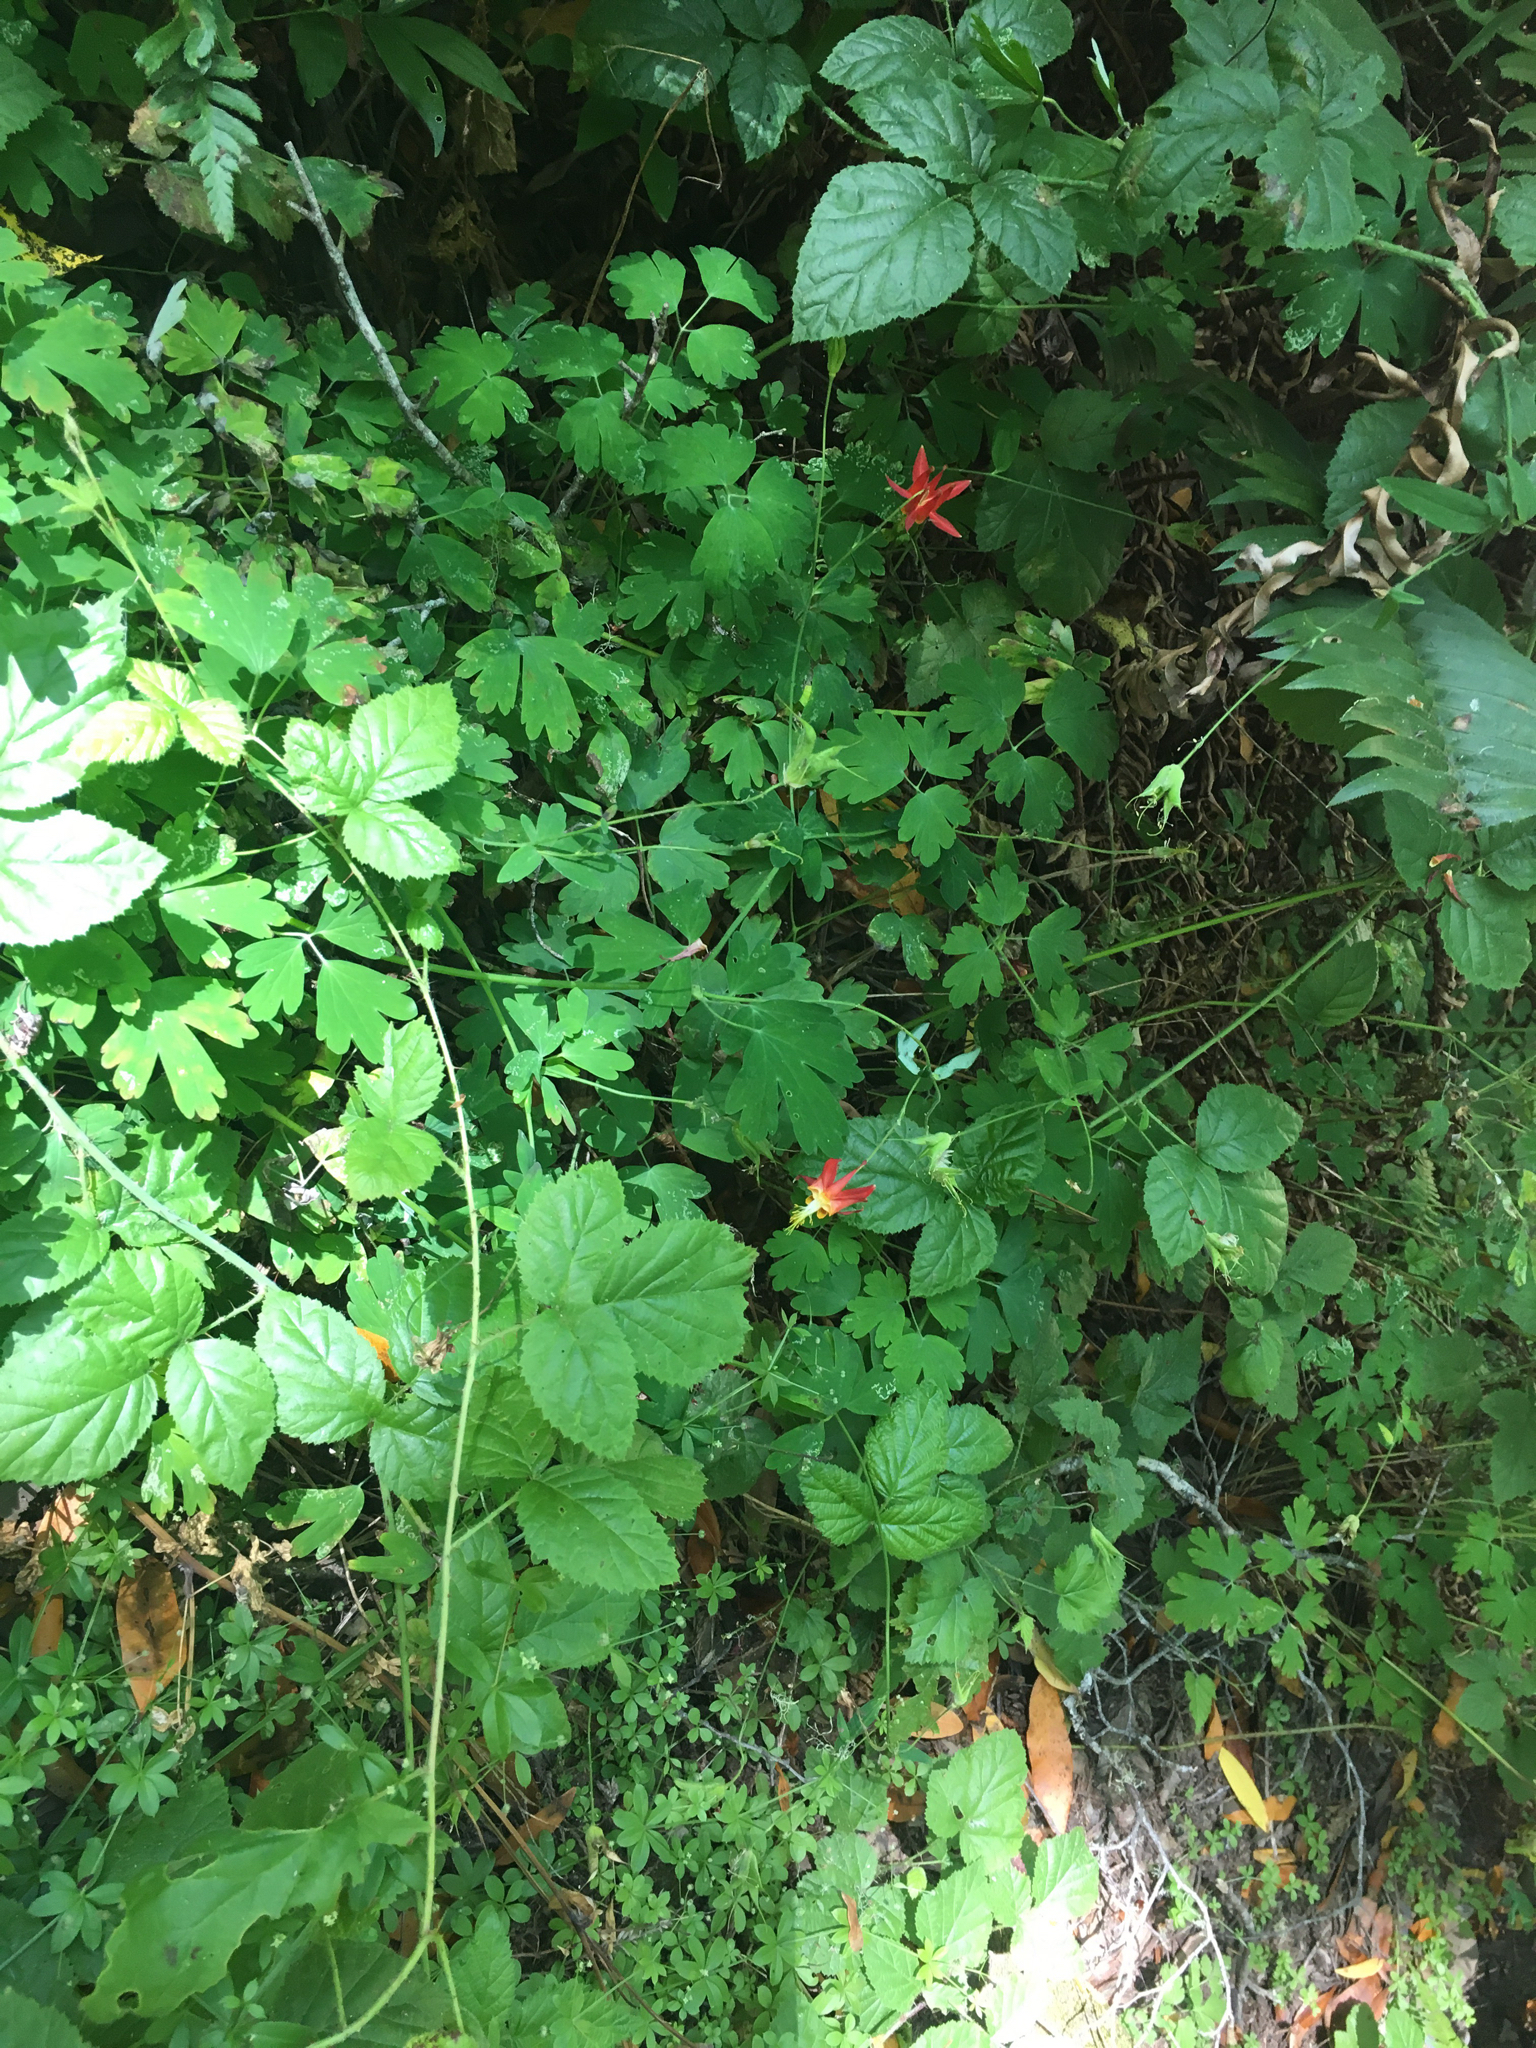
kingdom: Plantae
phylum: Tracheophyta
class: Magnoliopsida
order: Ranunculales
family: Ranunculaceae
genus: Aquilegia
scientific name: Aquilegia formosa
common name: Sitka columbine
